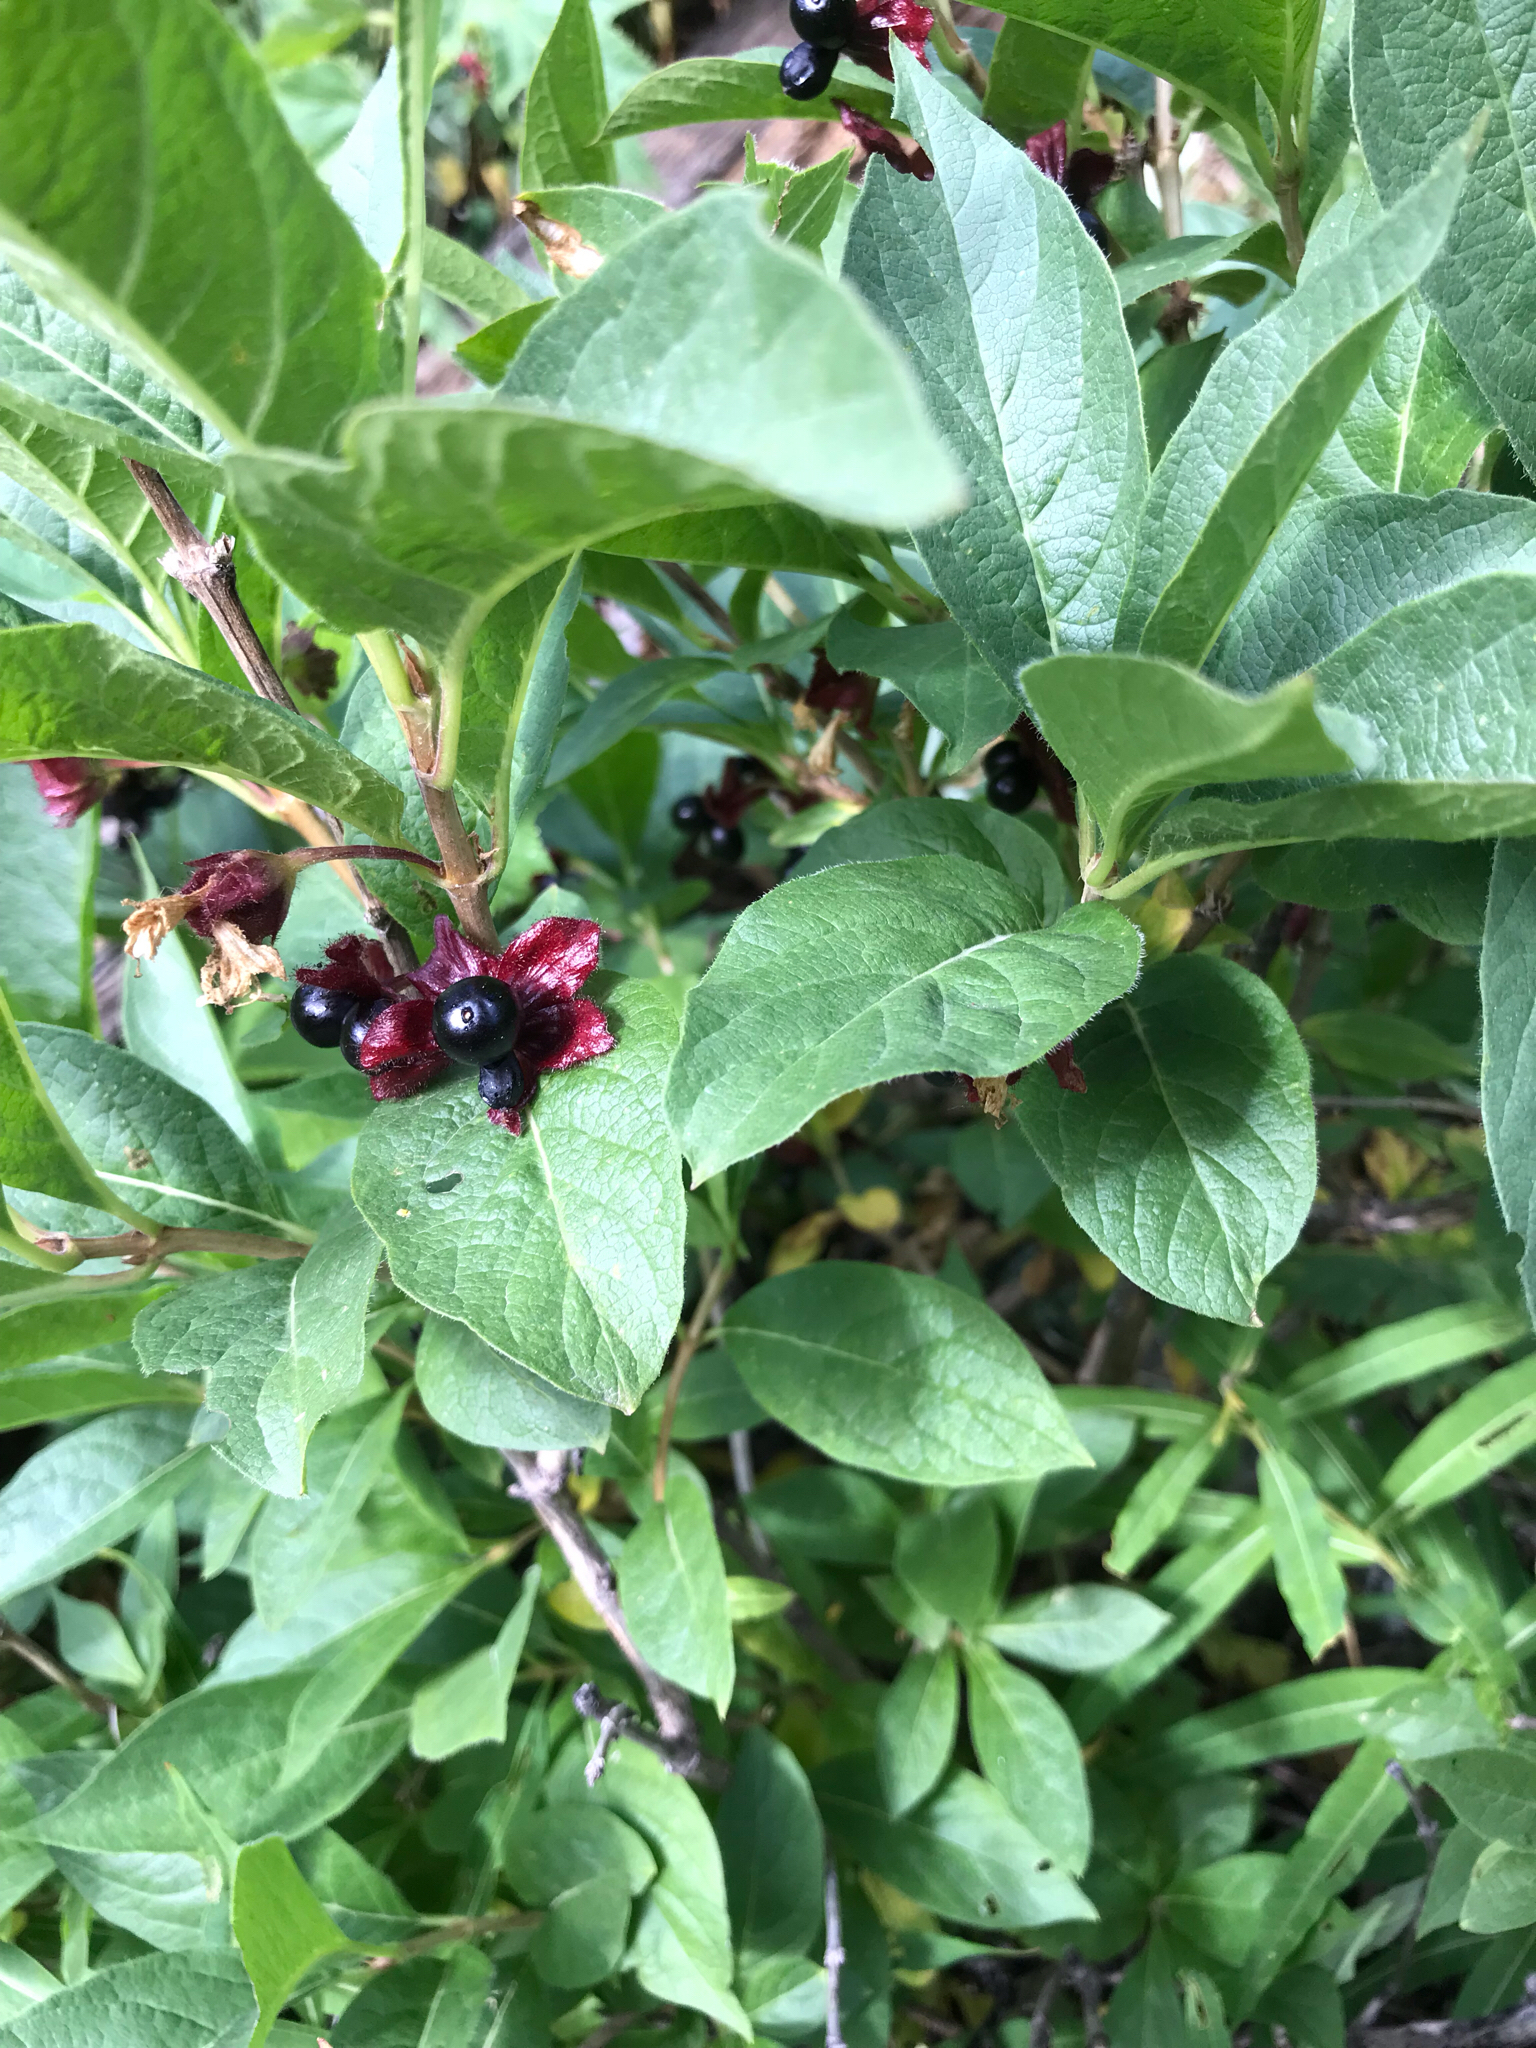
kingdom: Plantae
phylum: Tracheophyta
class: Magnoliopsida
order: Dipsacales
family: Caprifoliaceae
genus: Lonicera
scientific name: Lonicera involucrata
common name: Californian honeysuckle
